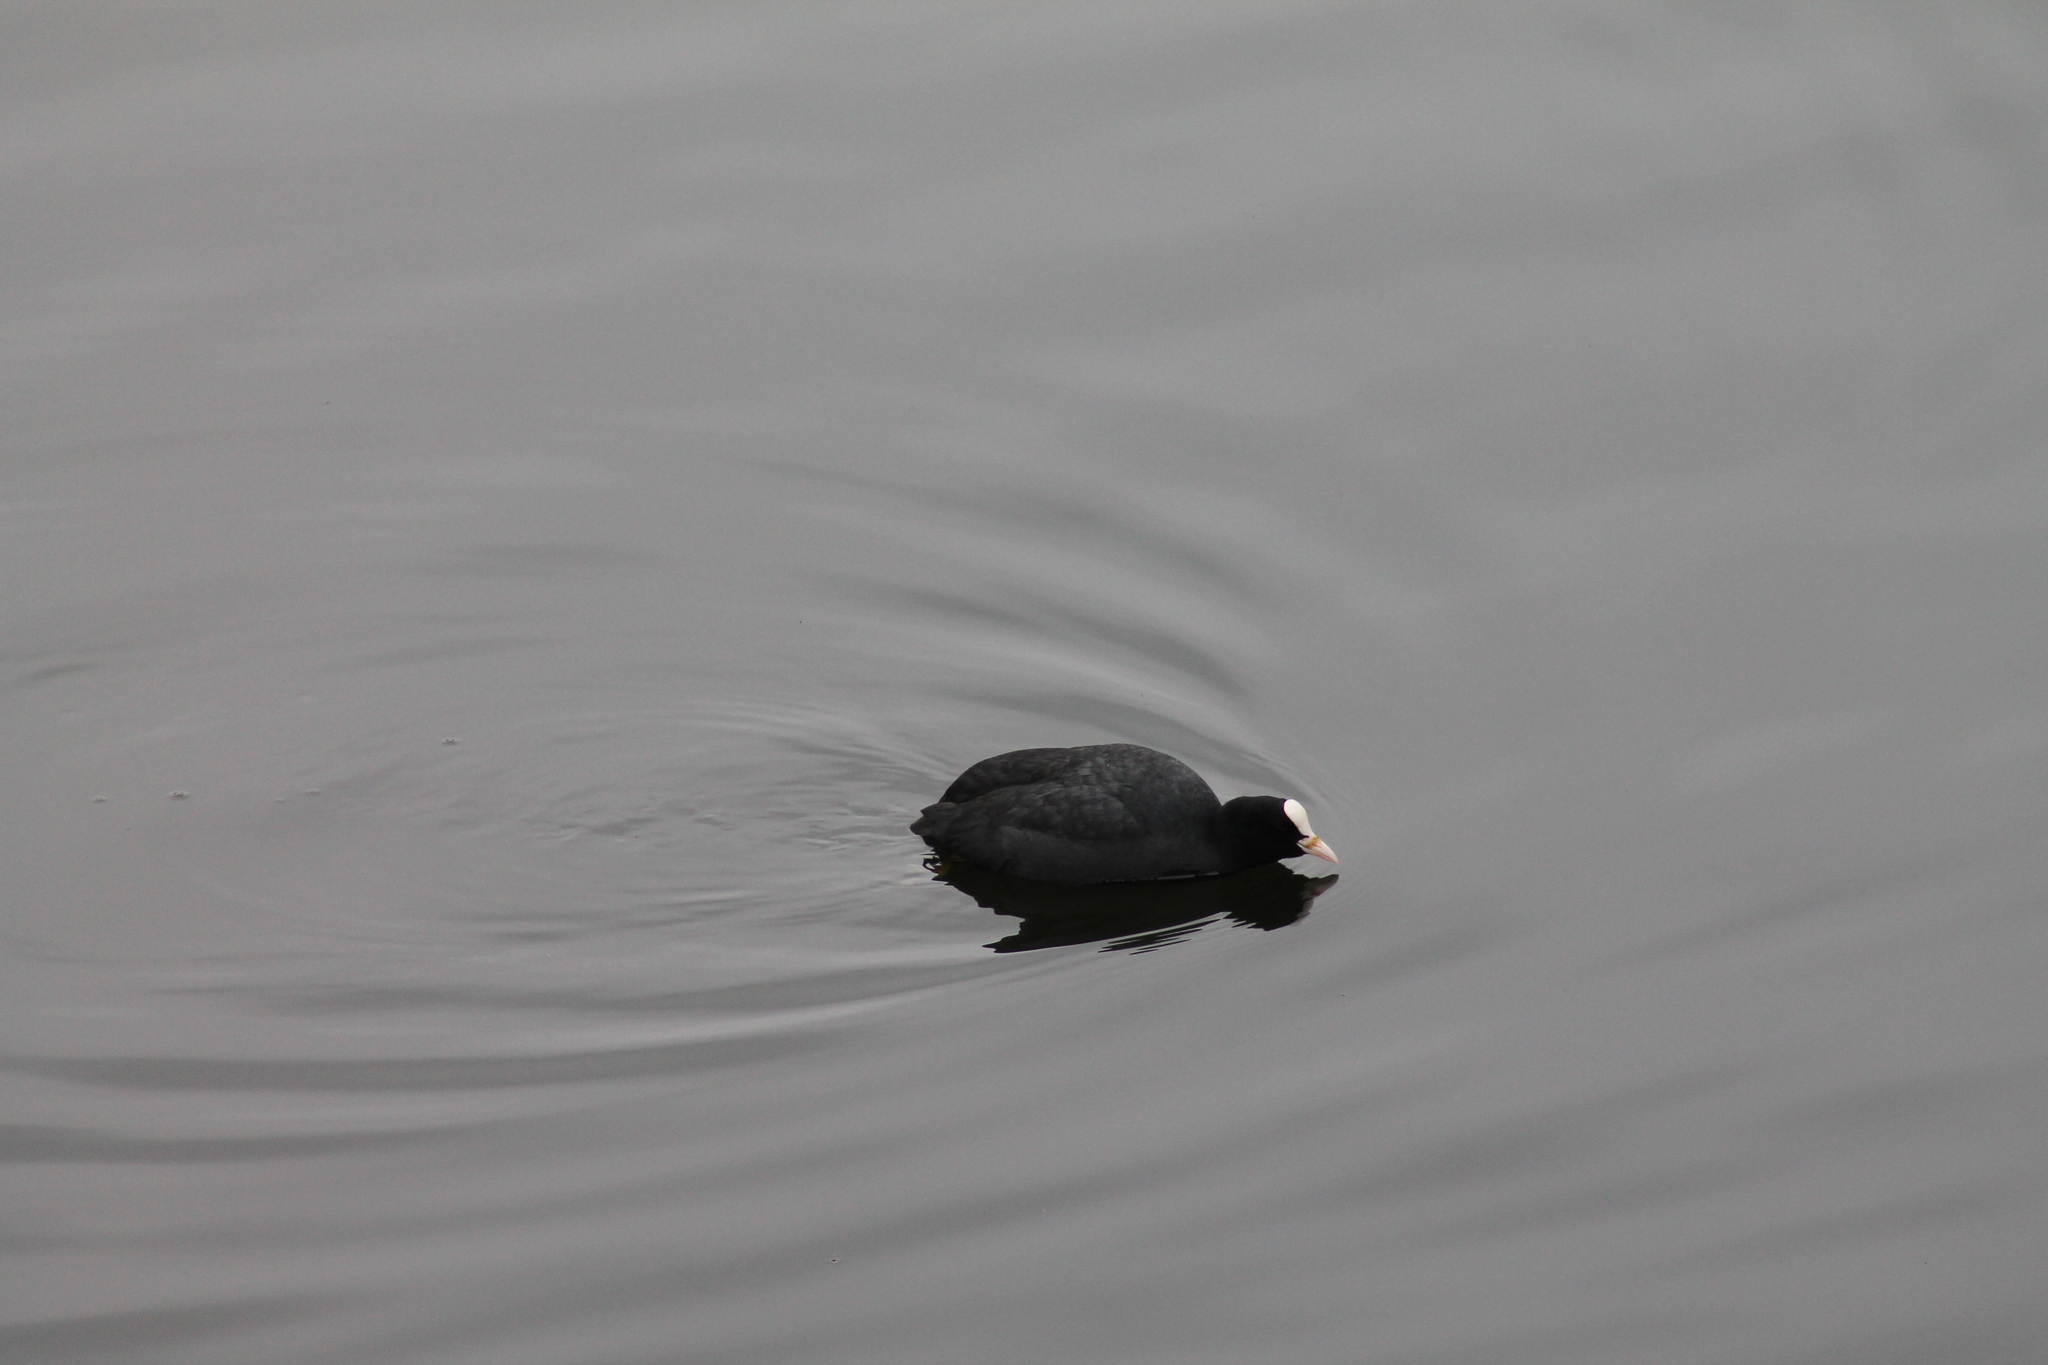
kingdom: Animalia
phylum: Chordata
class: Aves
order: Gruiformes
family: Rallidae
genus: Fulica
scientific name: Fulica atra
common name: Eurasian coot
